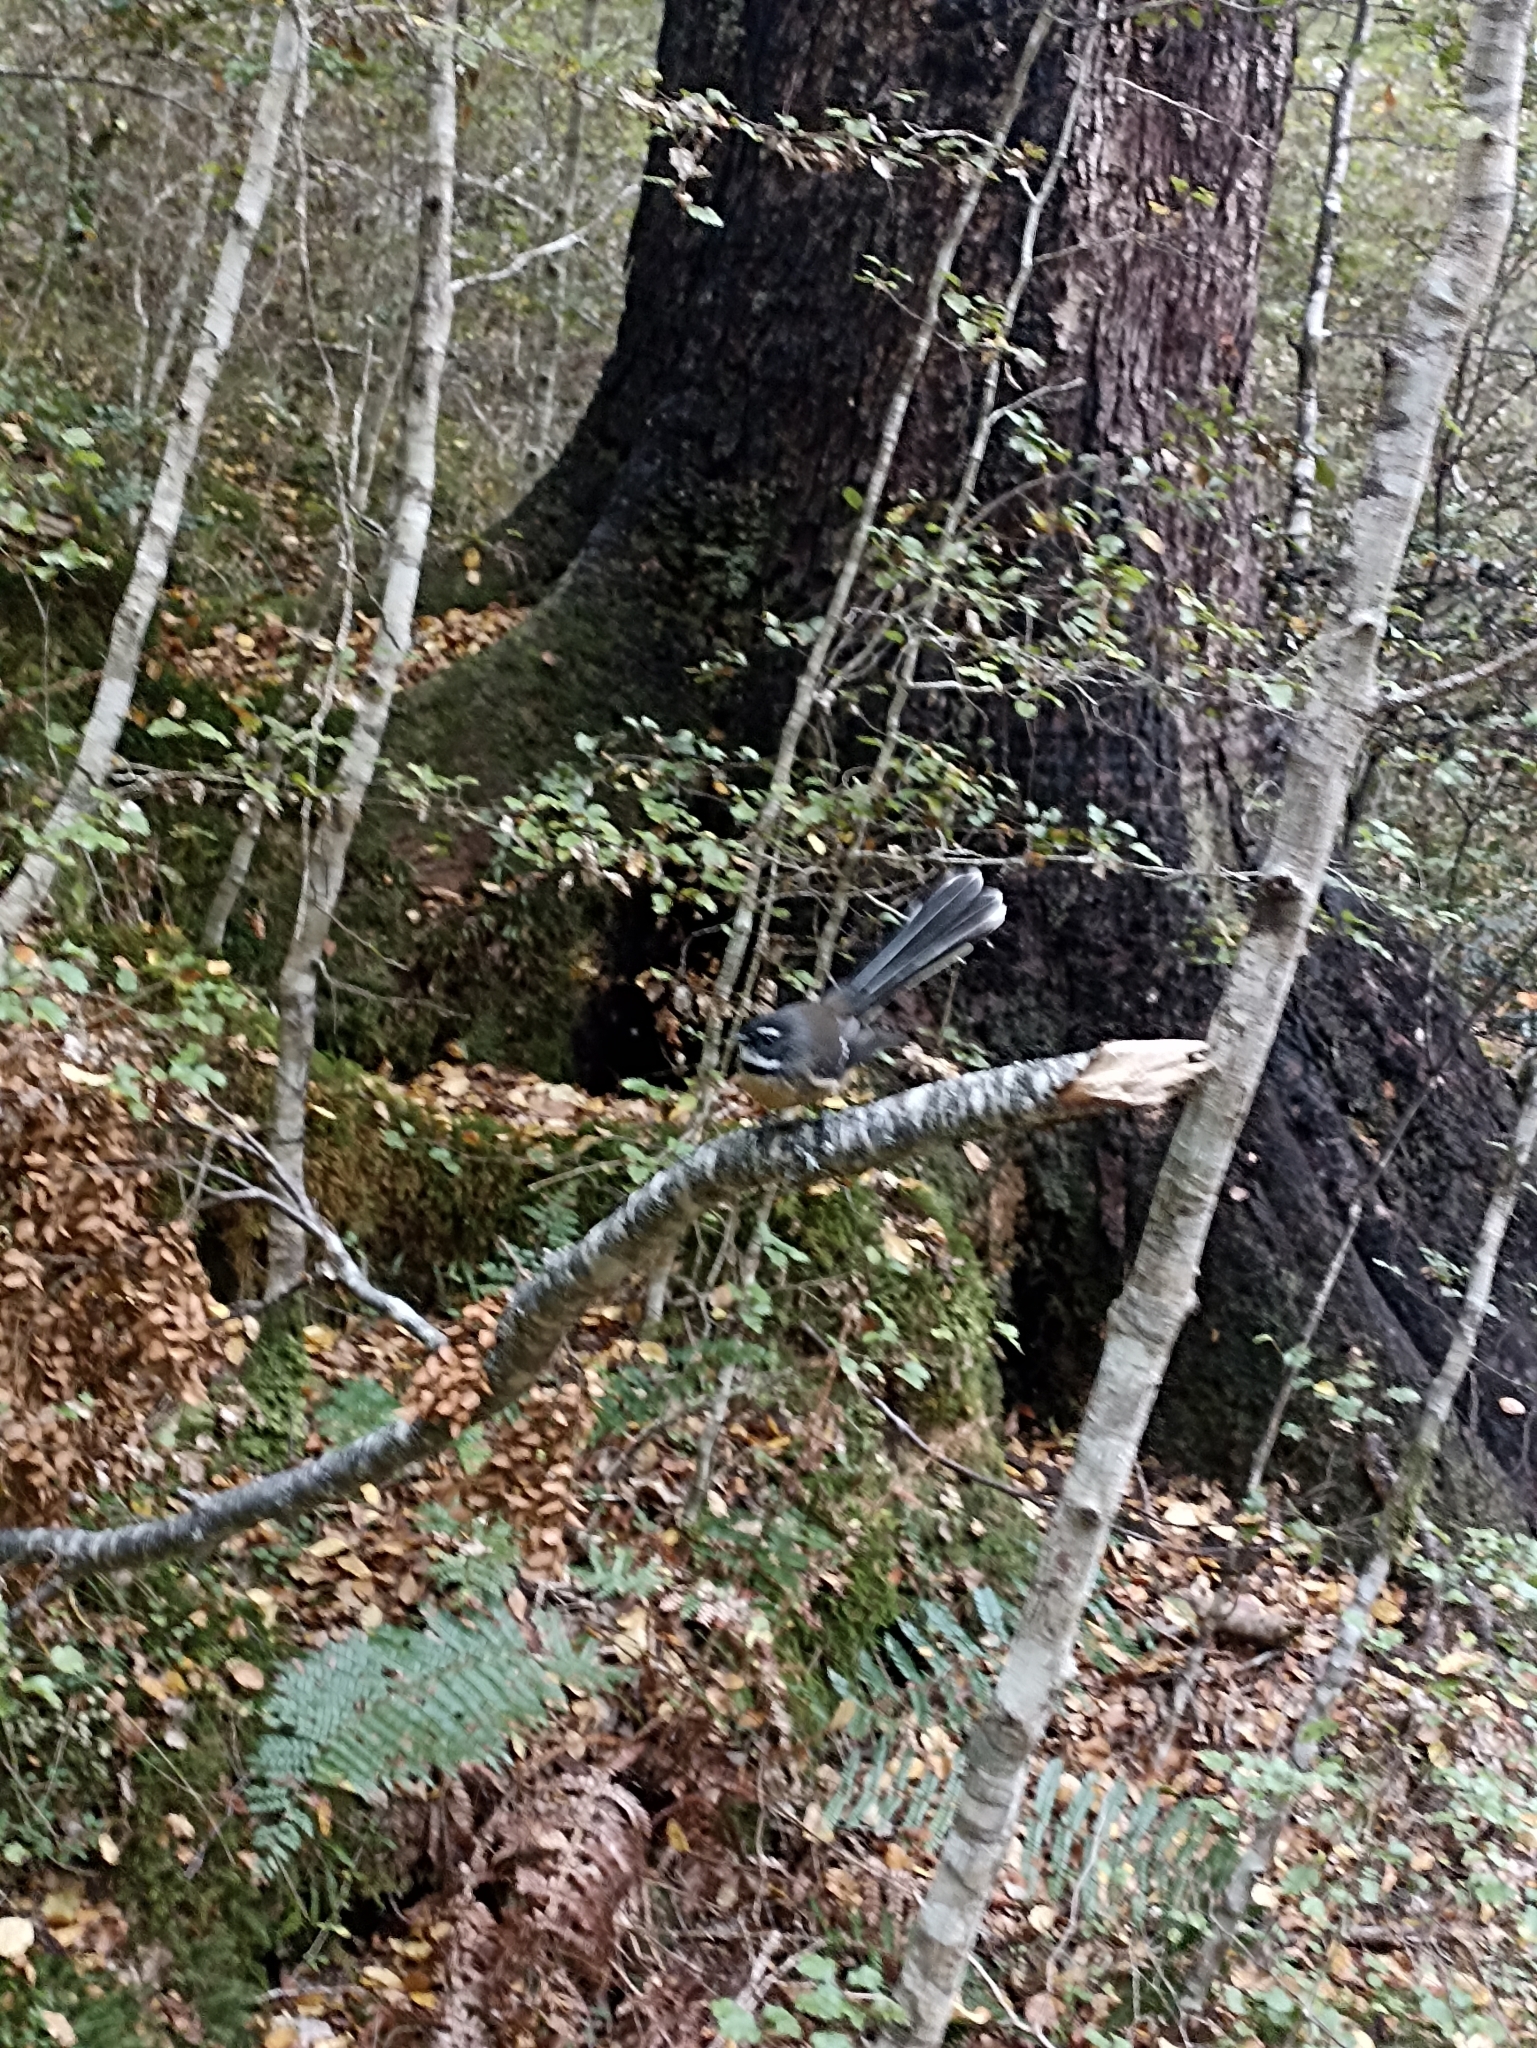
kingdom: Animalia
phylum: Chordata
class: Aves
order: Passeriformes
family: Rhipiduridae
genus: Rhipidura
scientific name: Rhipidura fuliginosa
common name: New zealand fantail
